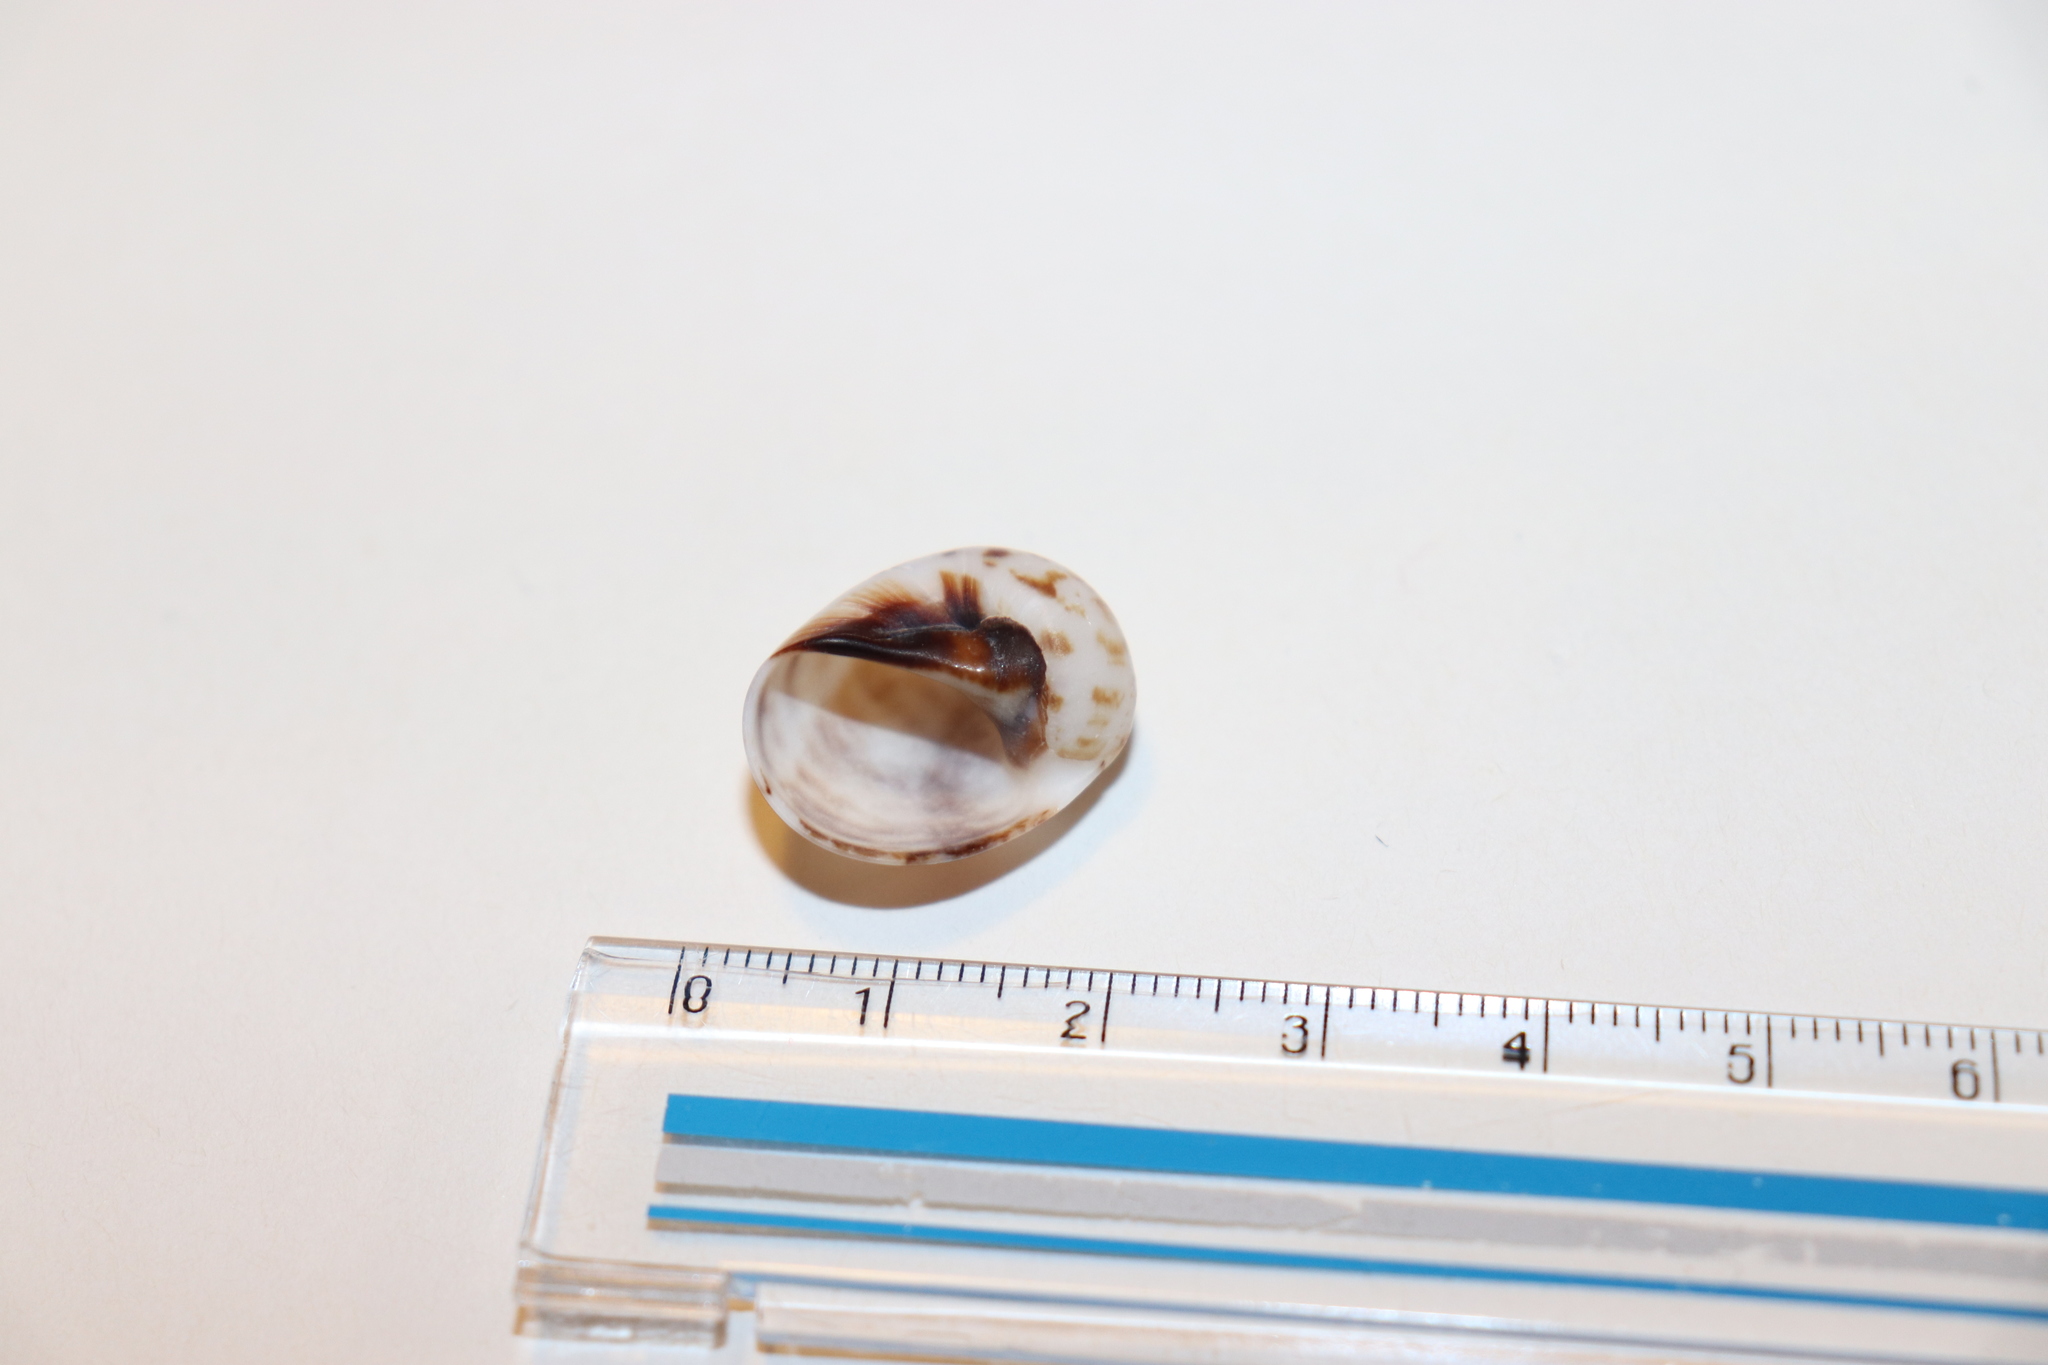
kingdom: Animalia
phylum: Mollusca
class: Gastropoda
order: Littorinimorpha
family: Naticidae
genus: Mammilla
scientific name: Mammilla simiae
